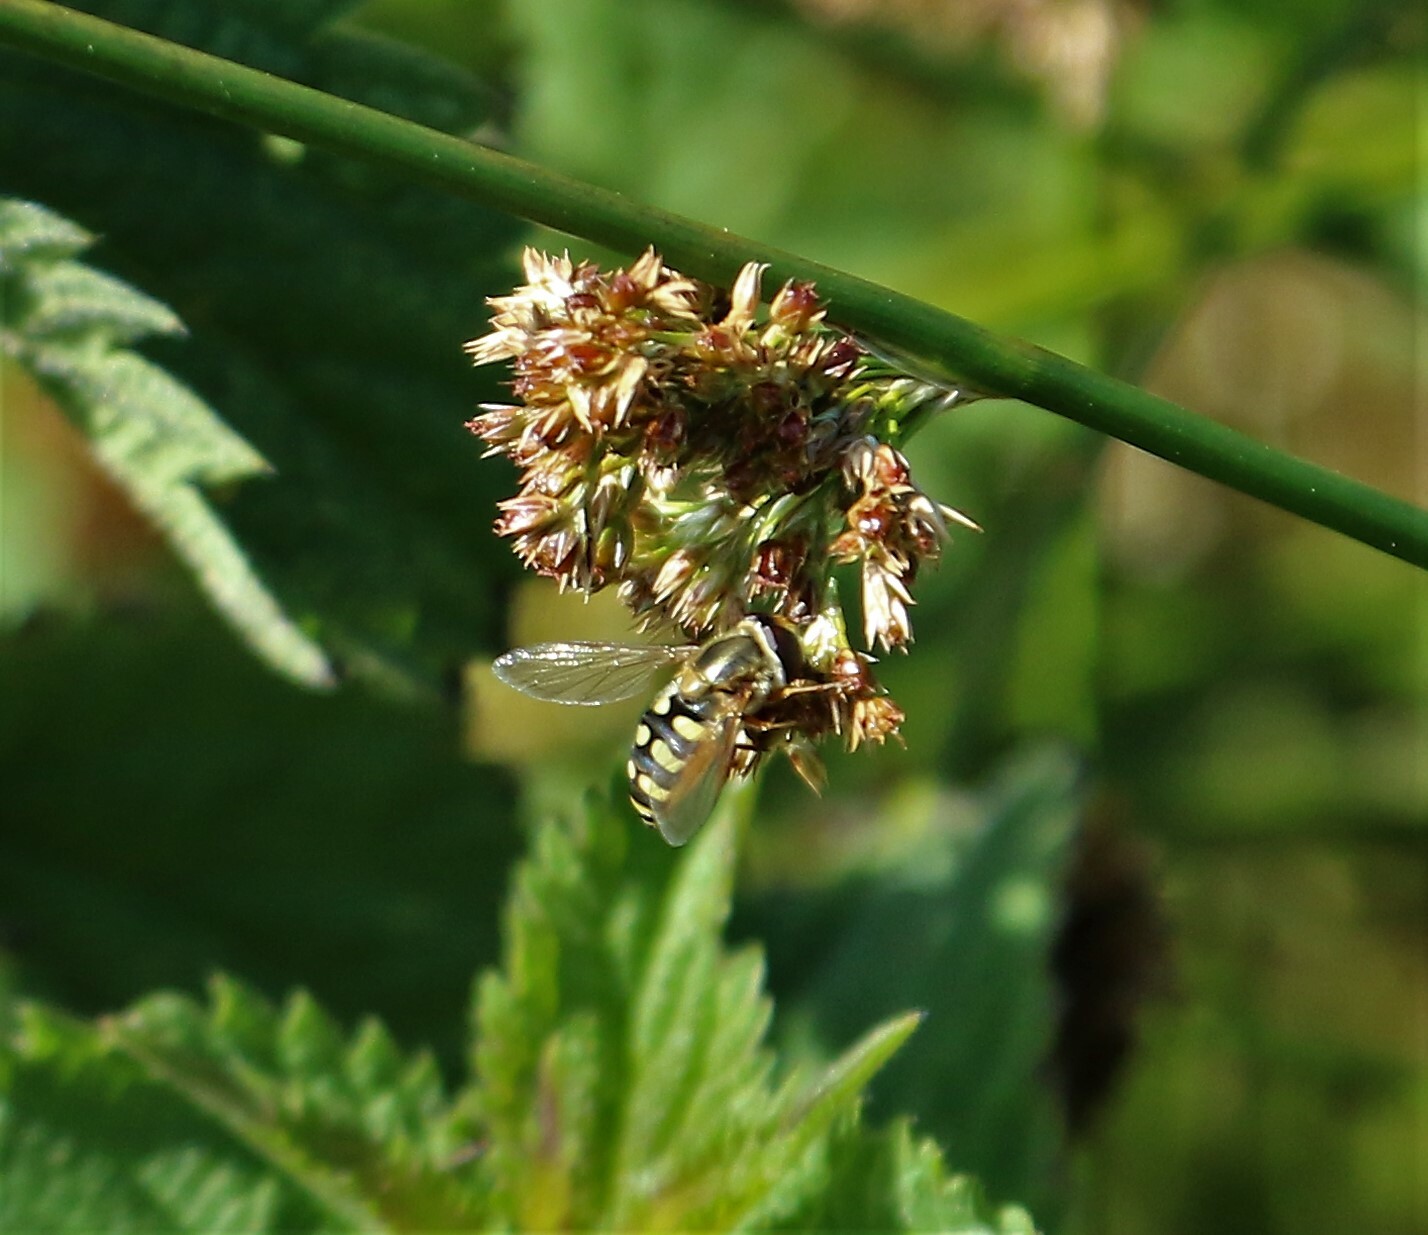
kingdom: Animalia
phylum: Arthropoda
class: Insecta
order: Diptera
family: Syrphidae
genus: Eupeodes
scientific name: Eupeodes corollae
